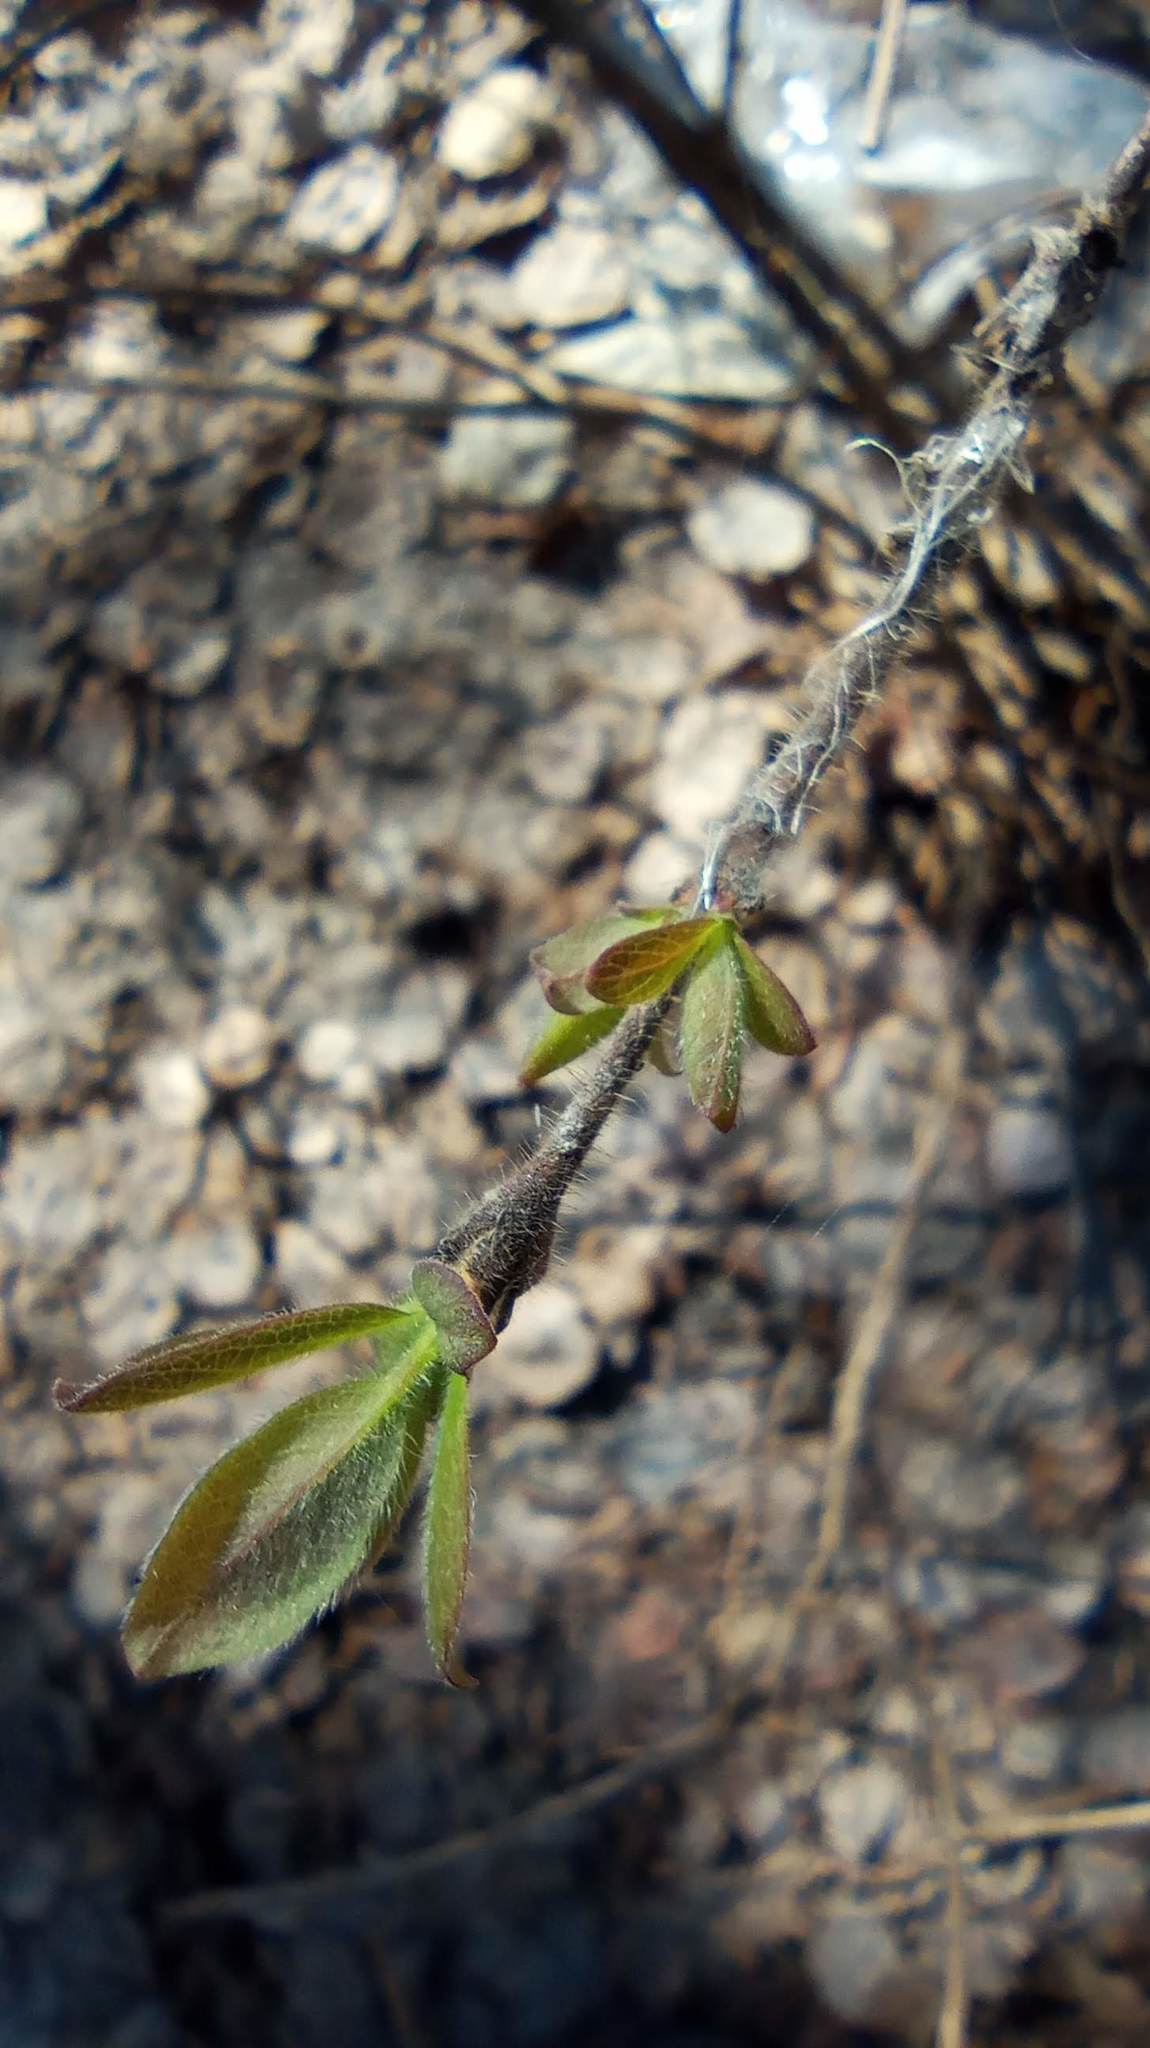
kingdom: Plantae
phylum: Tracheophyta
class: Magnoliopsida
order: Dipsacales
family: Caprifoliaceae
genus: Lonicera
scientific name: Lonicera caerulea
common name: Blue honeysuckle
